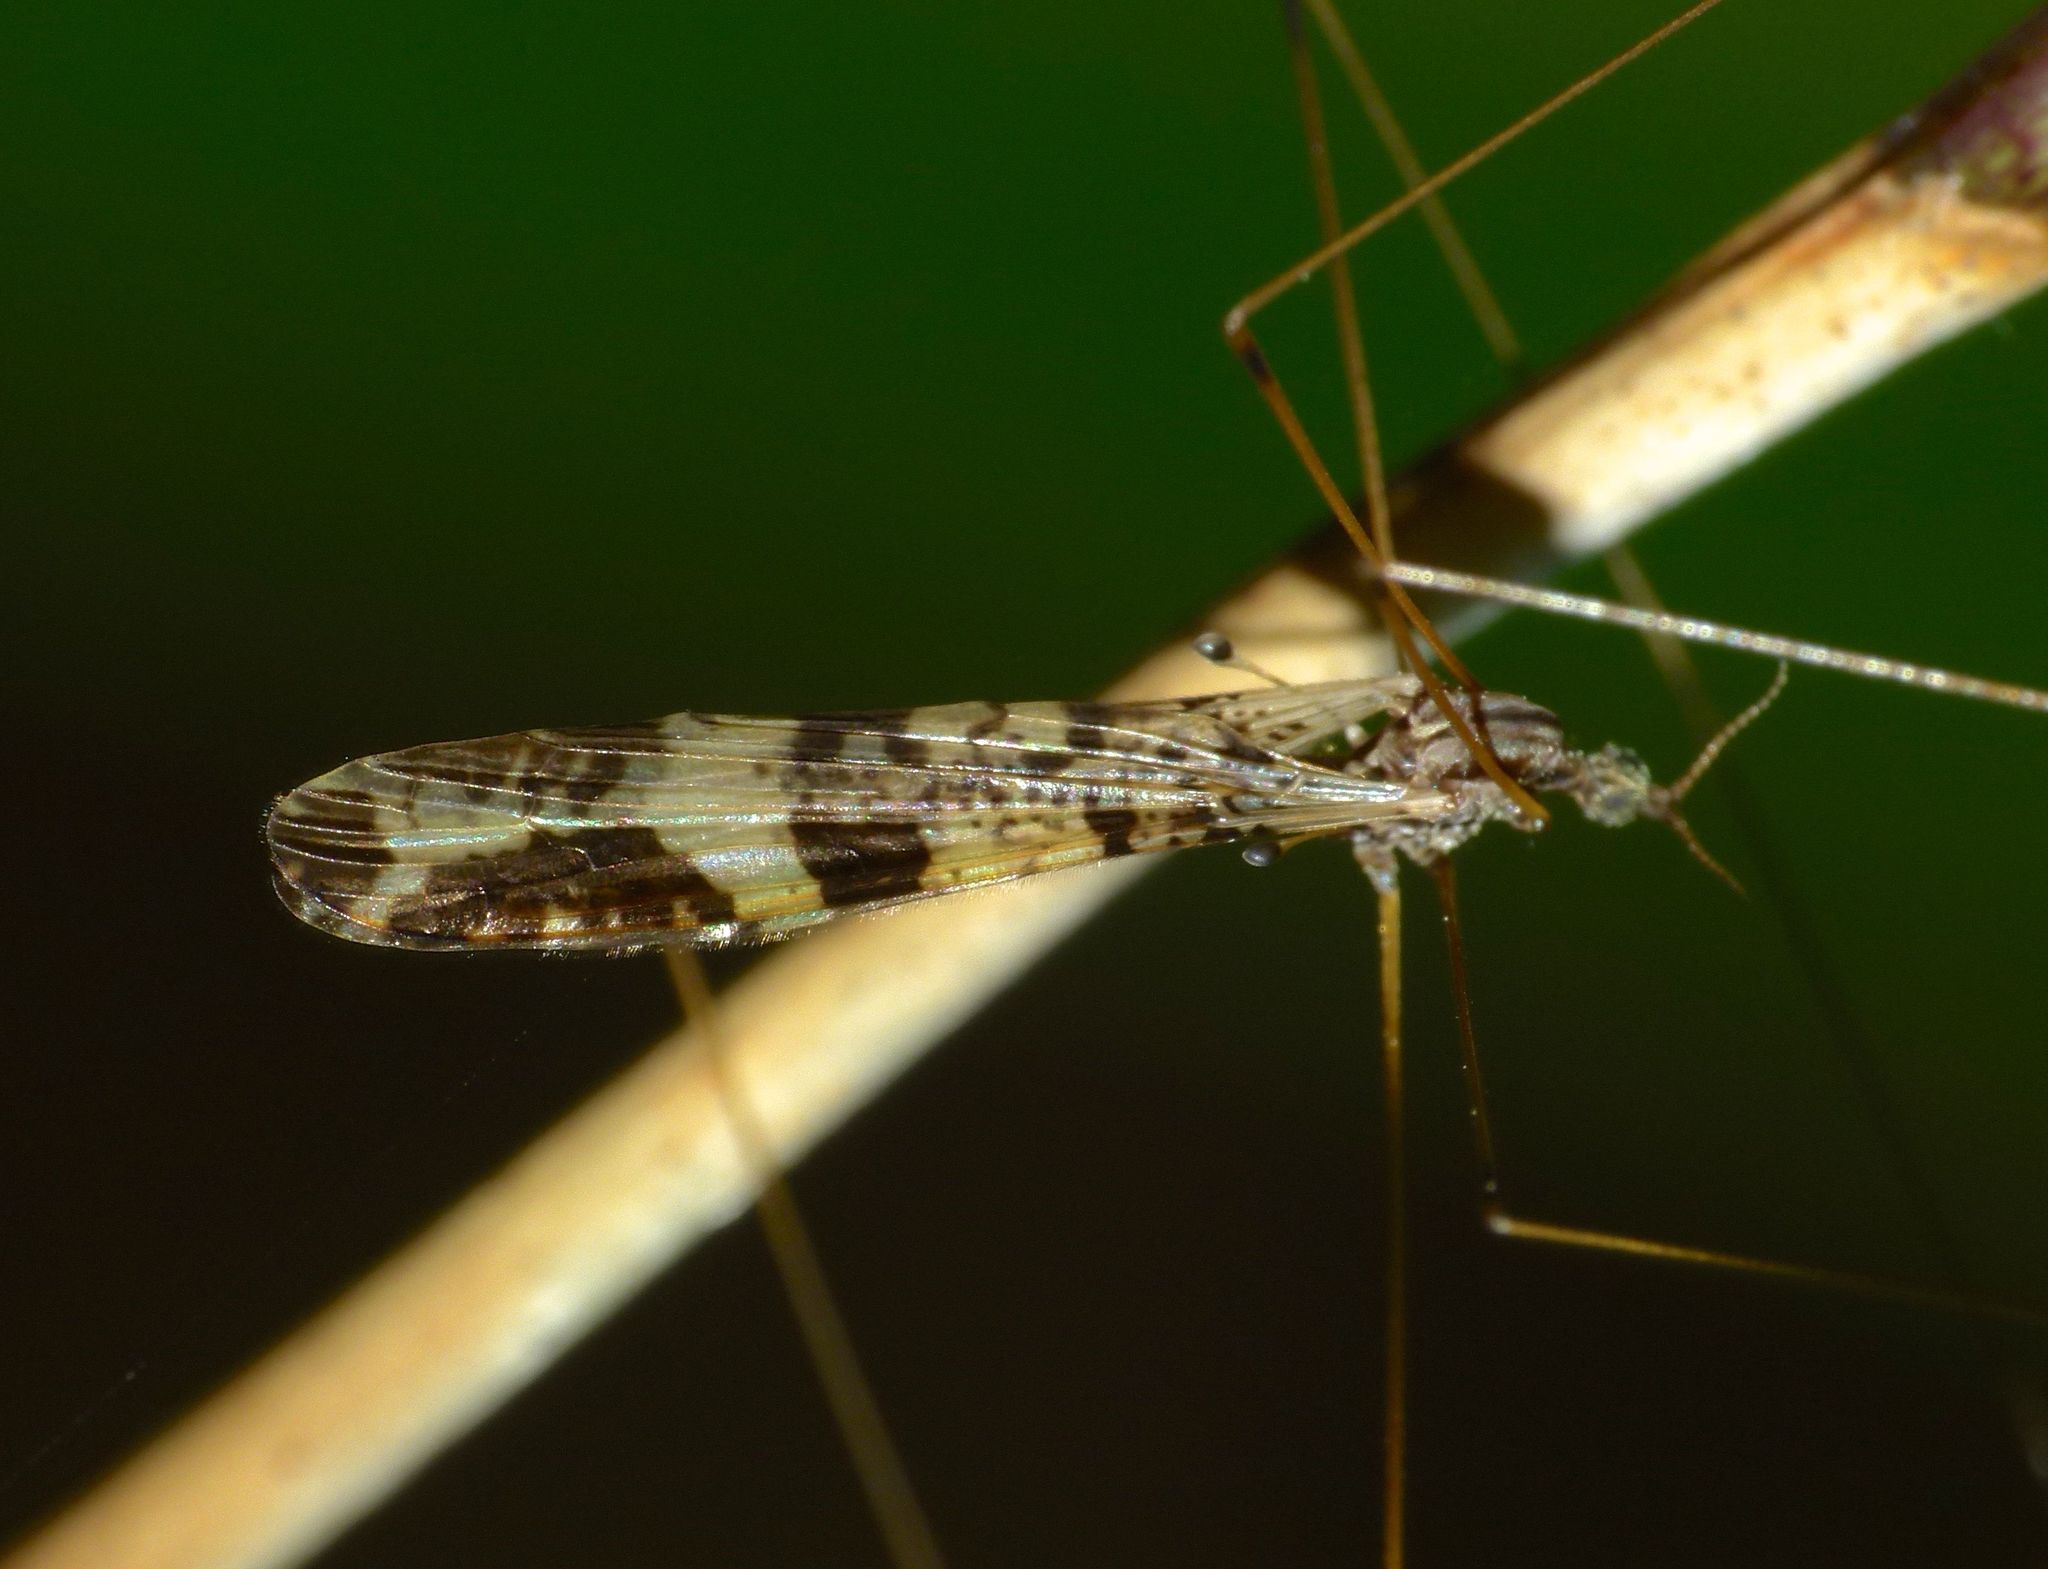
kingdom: Animalia
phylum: Arthropoda
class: Insecta
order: Diptera
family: Limoniidae
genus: Discobola
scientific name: Discobola venustula
